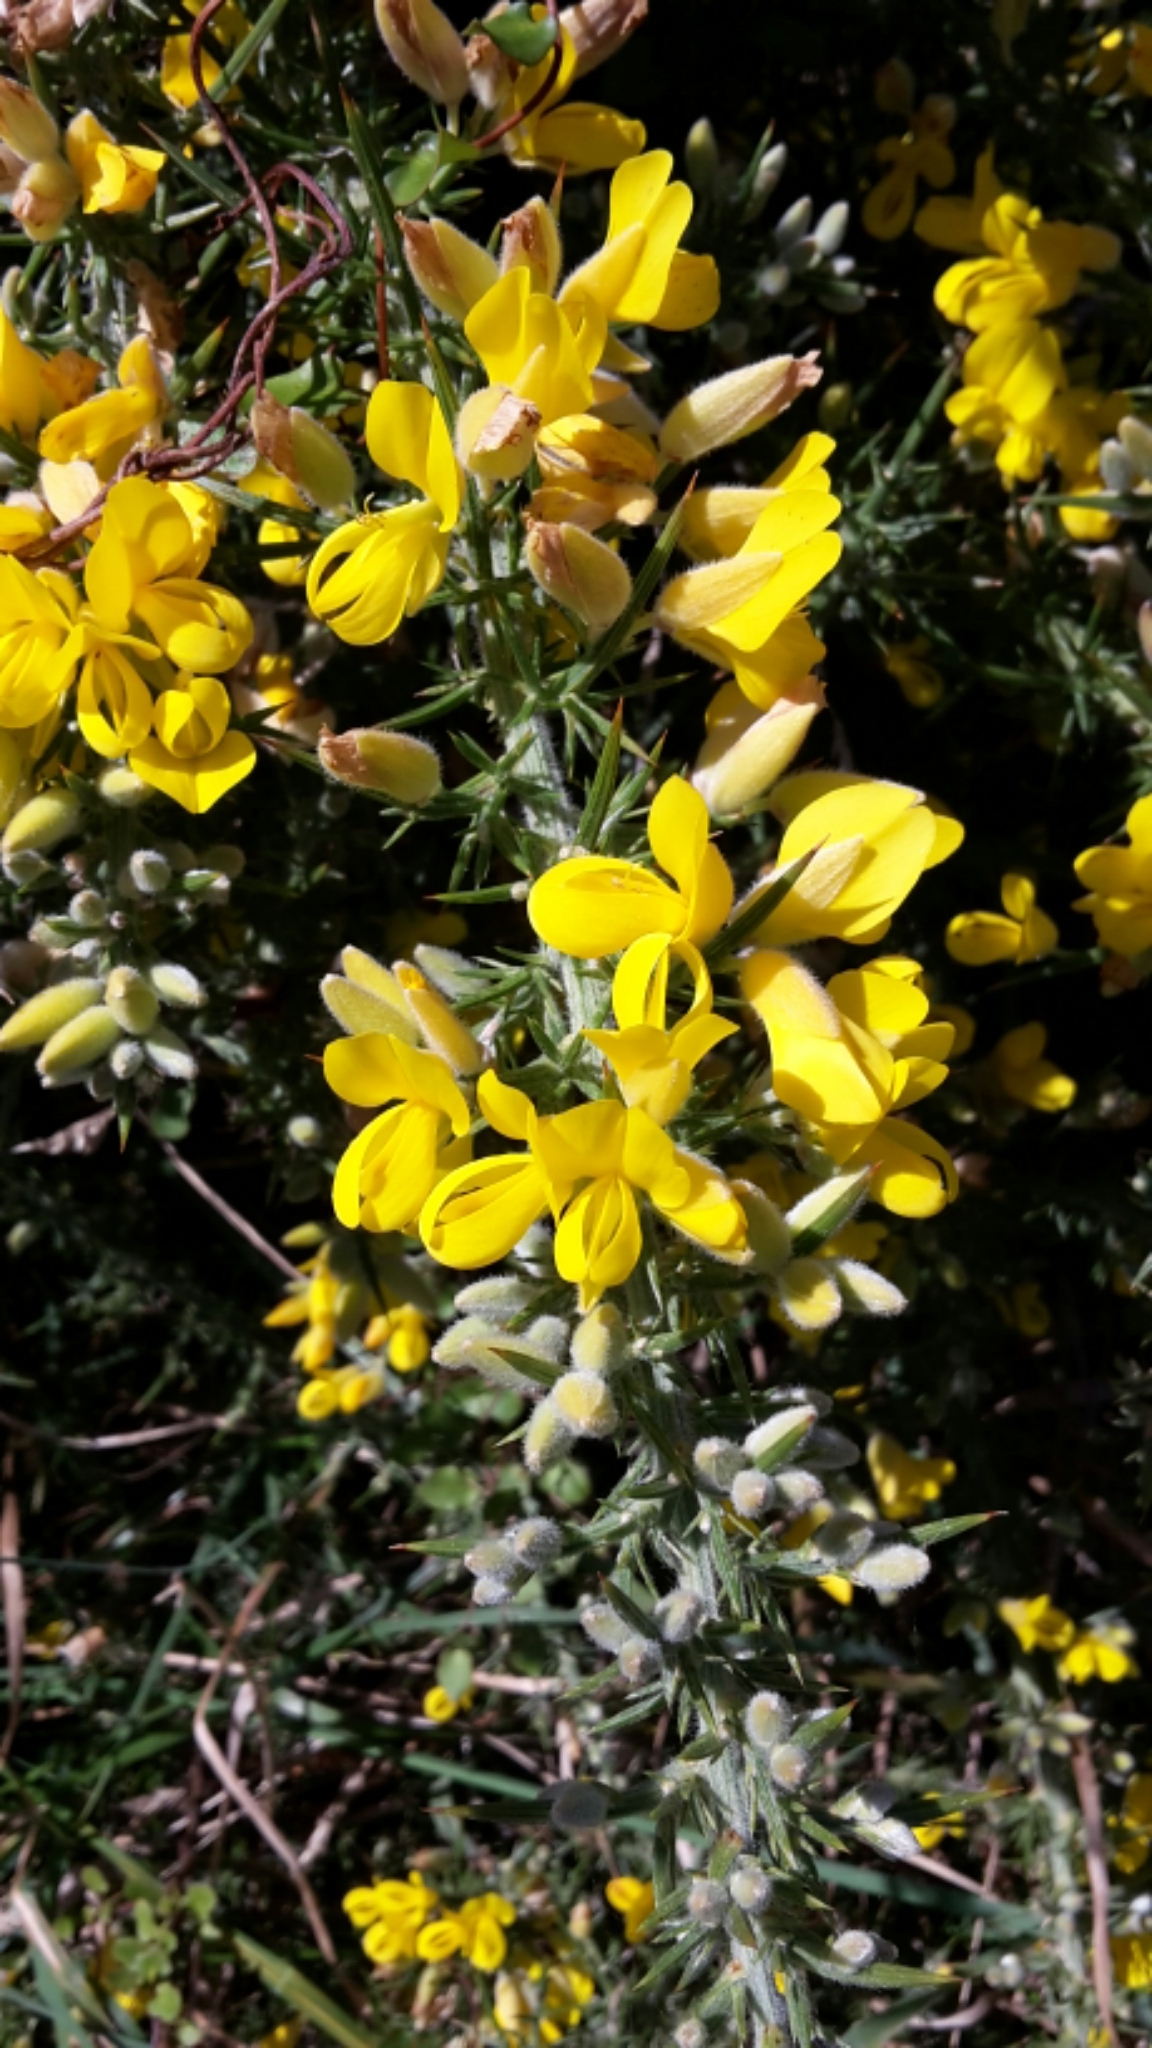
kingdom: Plantae
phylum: Tracheophyta
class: Magnoliopsida
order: Fabales
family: Fabaceae
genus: Ulex
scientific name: Ulex europaeus
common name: Common gorse
